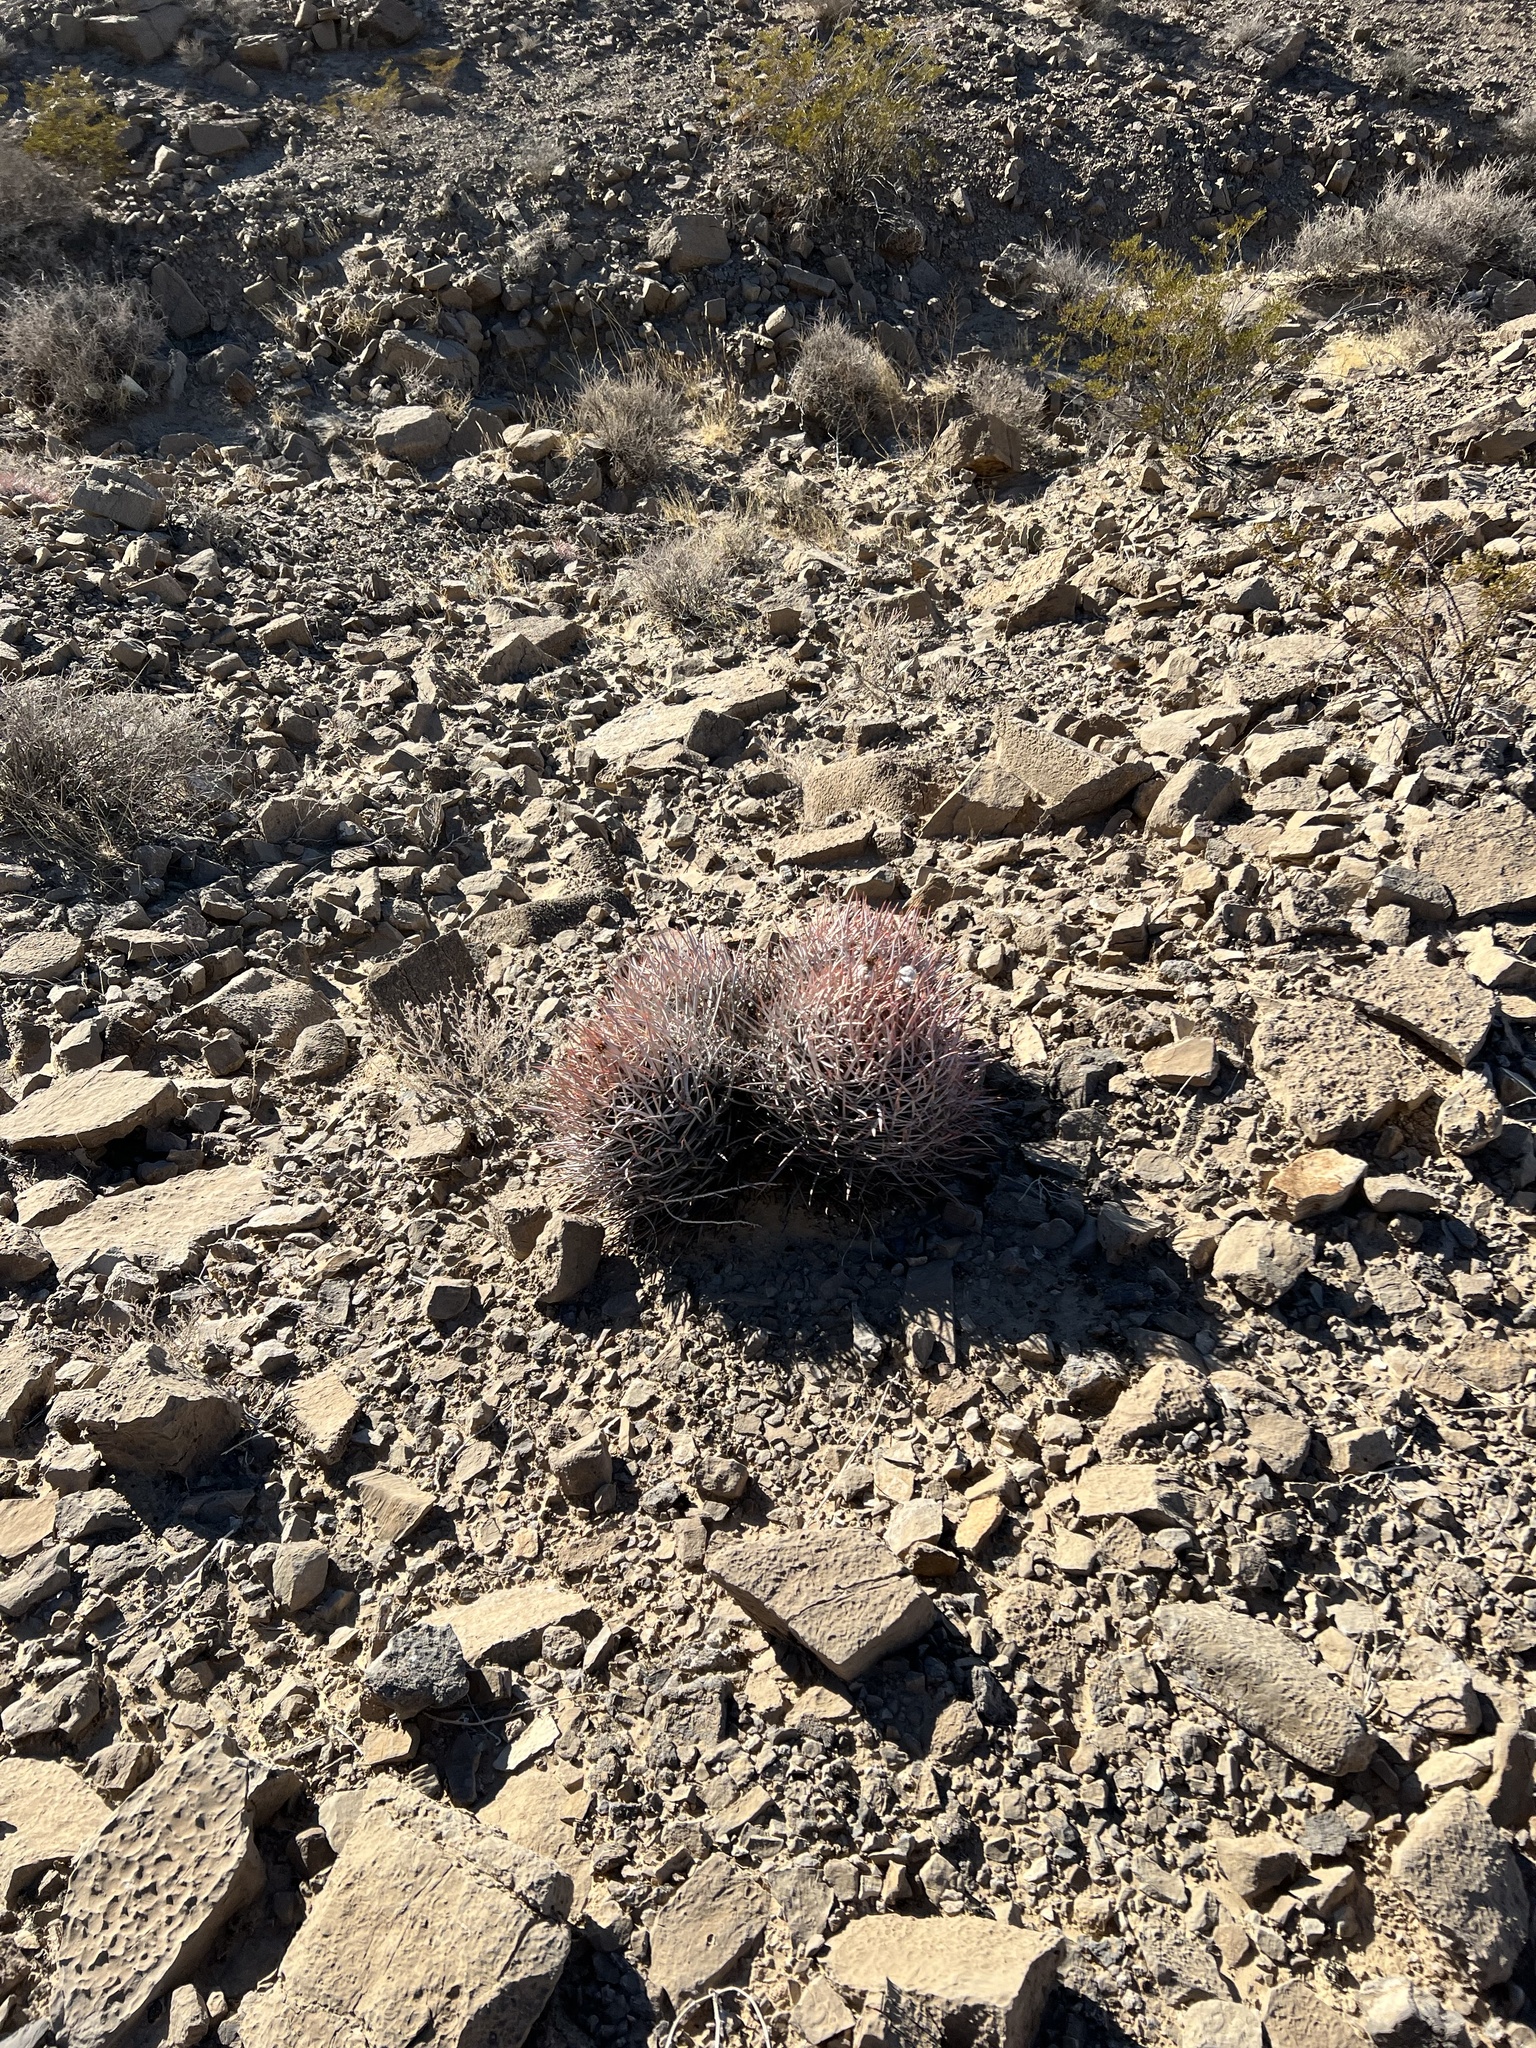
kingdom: Plantae
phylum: Tracheophyta
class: Magnoliopsida
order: Caryophyllales
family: Cactaceae
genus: Echinocactus
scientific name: Echinocactus polycephalus
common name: Cottontop cactus
